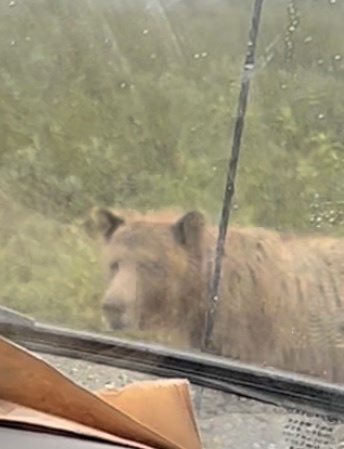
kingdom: Animalia
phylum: Chordata
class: Mammalia
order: Carnivora
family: Ursidae
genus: Ursus
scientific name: Ursus arctos
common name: Brown bear
